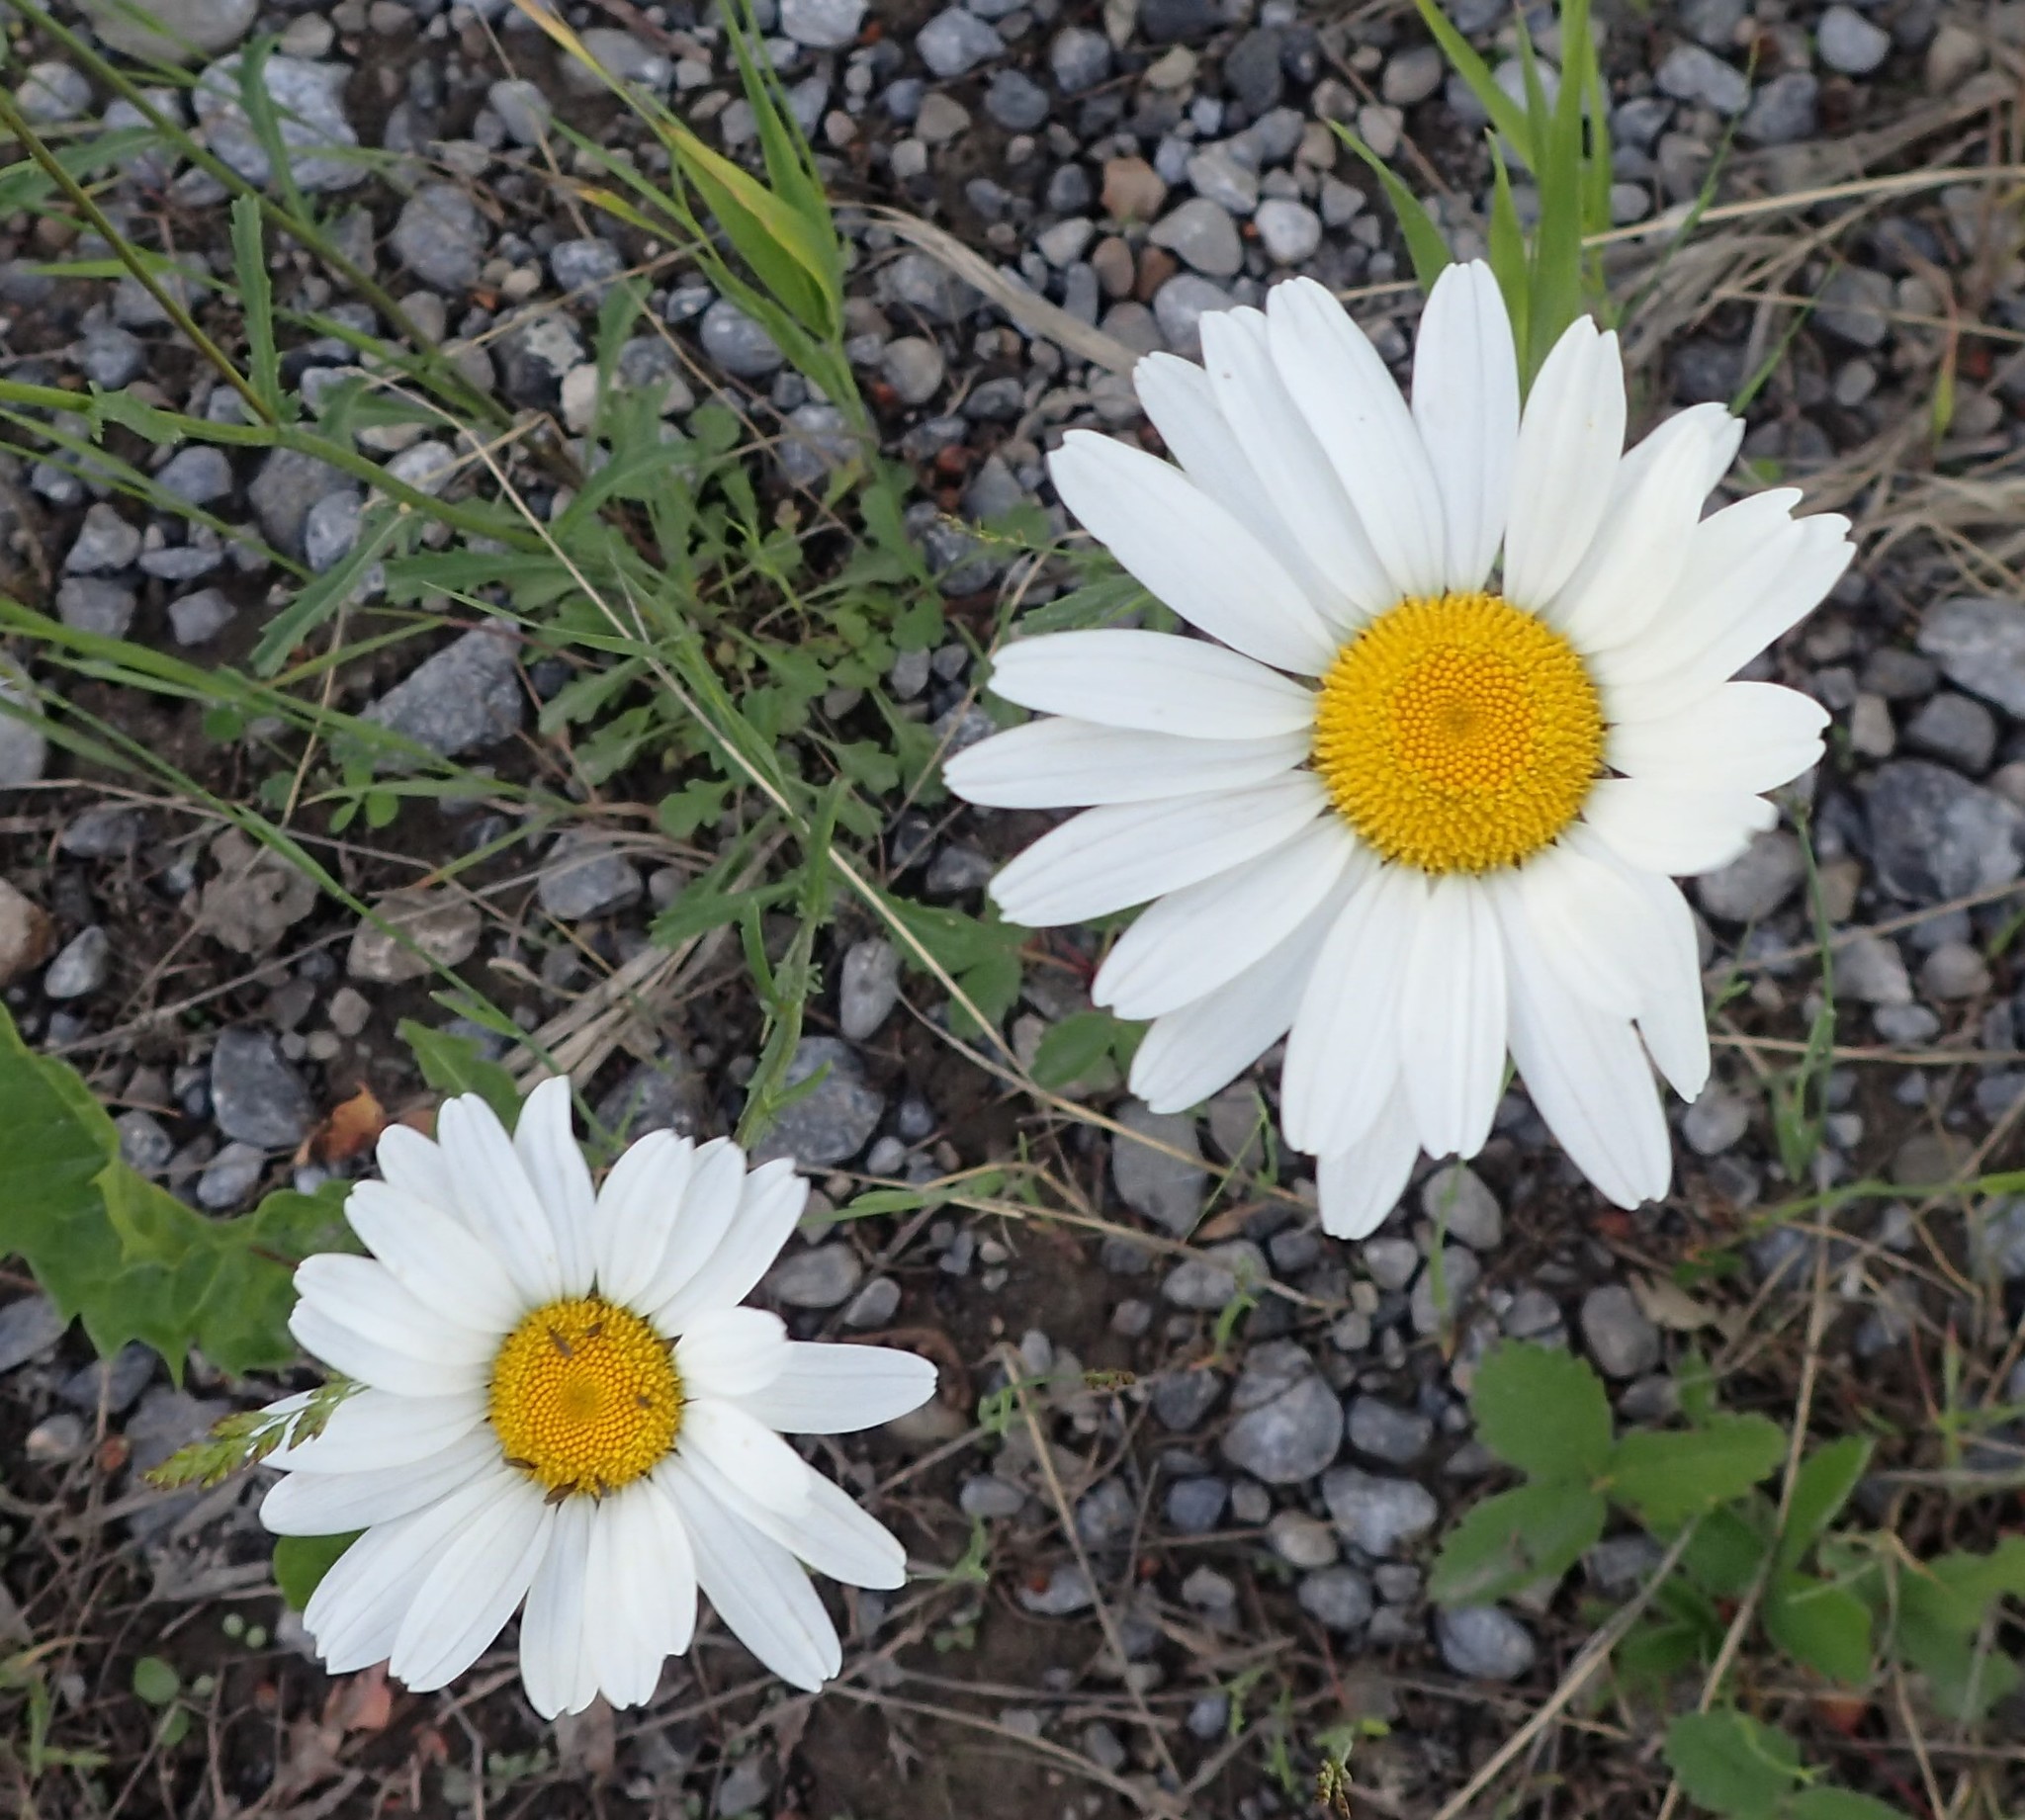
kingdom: Plantae
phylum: Tracheophyta
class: Magnoliopsida
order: Asterales
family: Asteraceae
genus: Leucanthemum
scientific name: Leucanthemum vulgare
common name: Oxeye daisy
